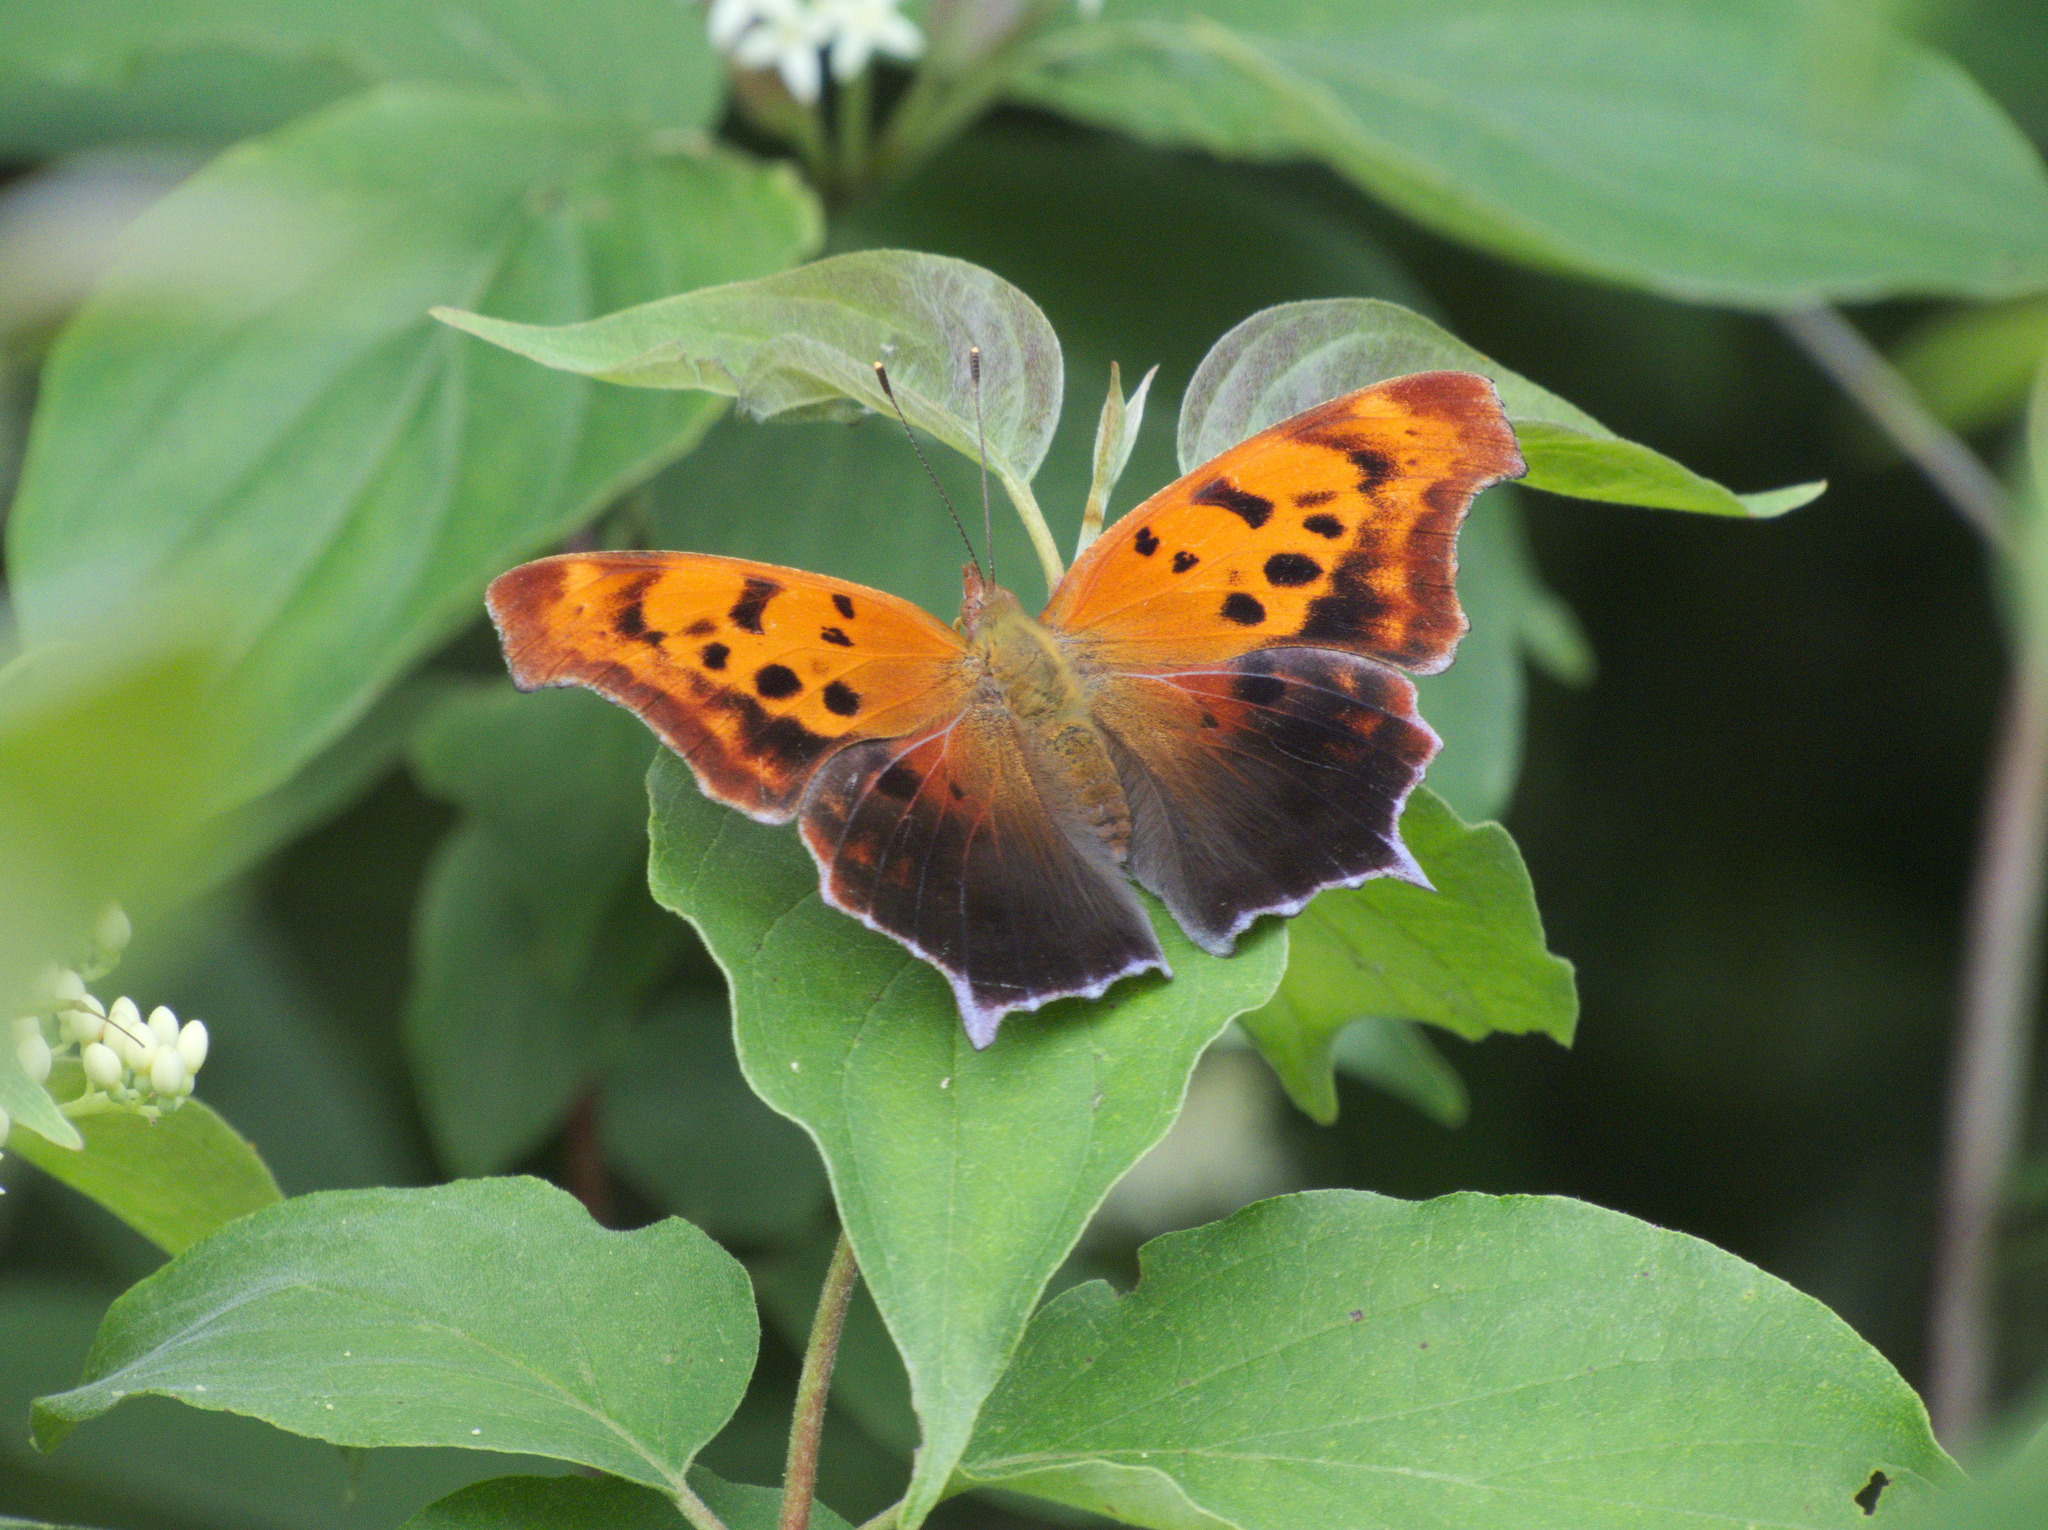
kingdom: Animalia
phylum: Arthropoda
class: Insecta
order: Lepidoptera
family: Nymphalidae
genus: Polygonia
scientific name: Polygonia interrogationis
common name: Question mark
